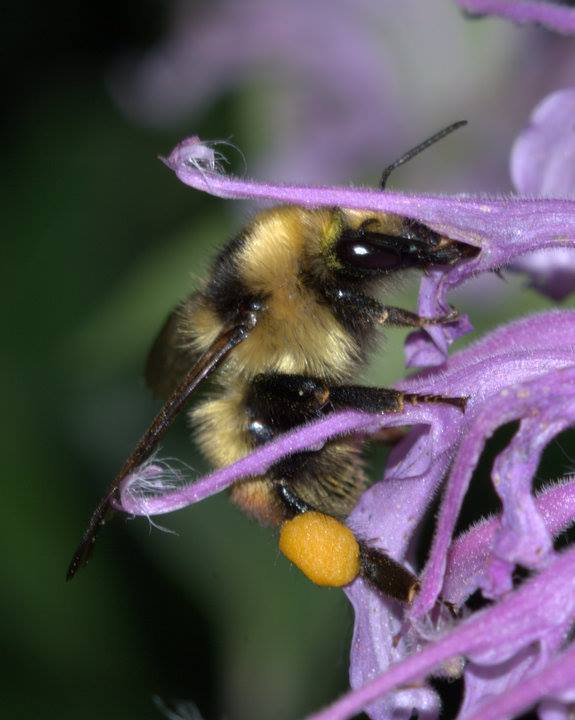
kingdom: Animalia
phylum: Arthropoda
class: Insecta
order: Hymenoptera
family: Apidae
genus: Bombus
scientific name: Bombus flavifrons
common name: Yellow head bumble bee
